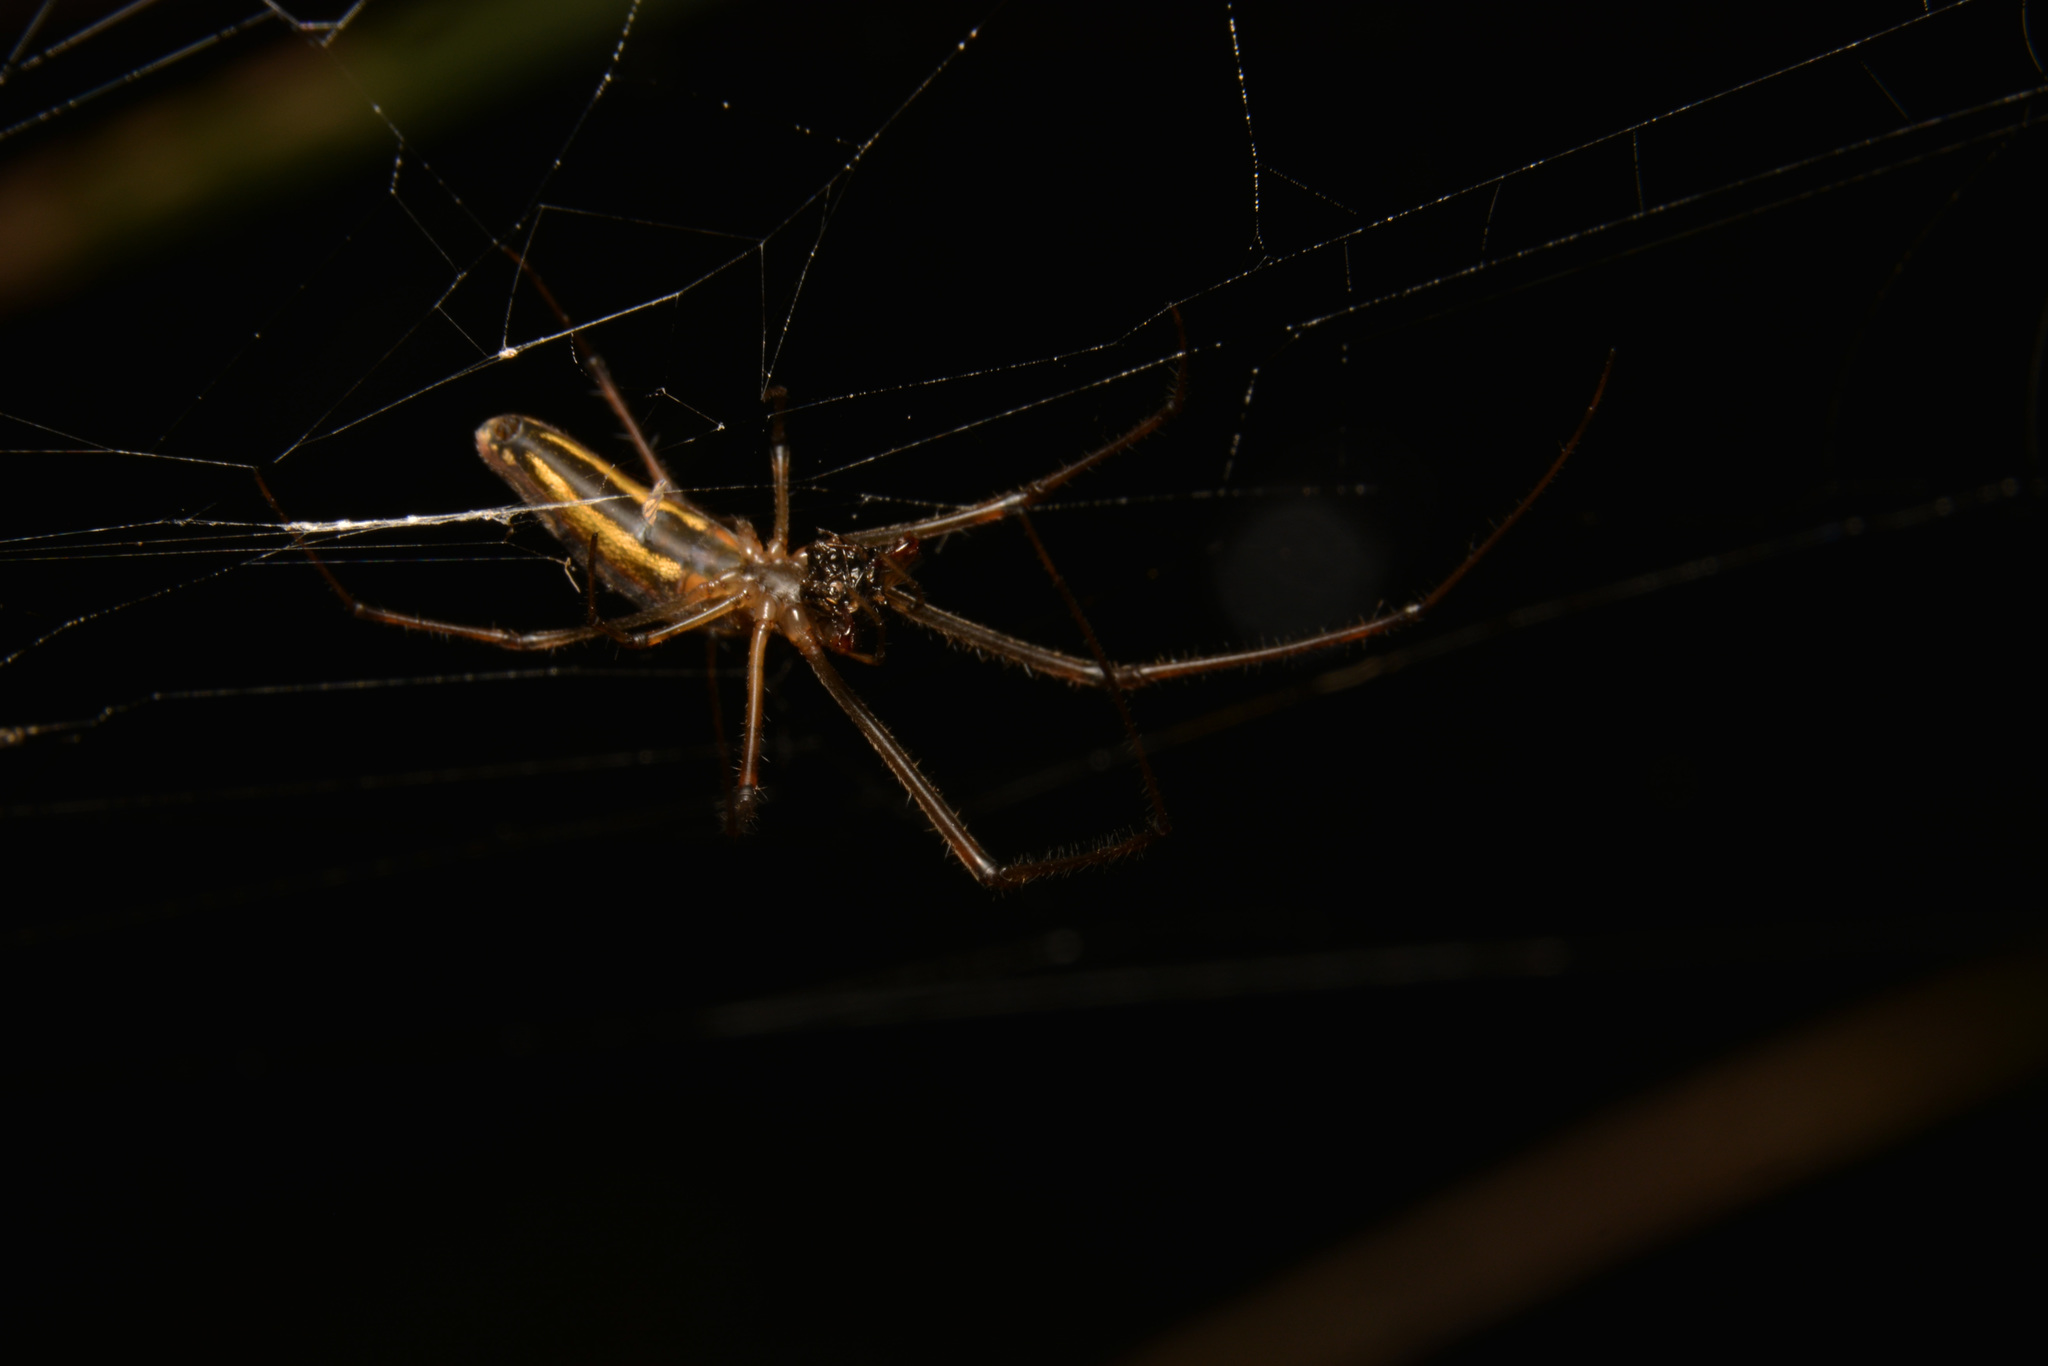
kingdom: Animalia
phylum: Arthropoda
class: Arachnida
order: Araneae
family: Tetragnathidae
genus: Tetragnatha
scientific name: Tetragnatha
